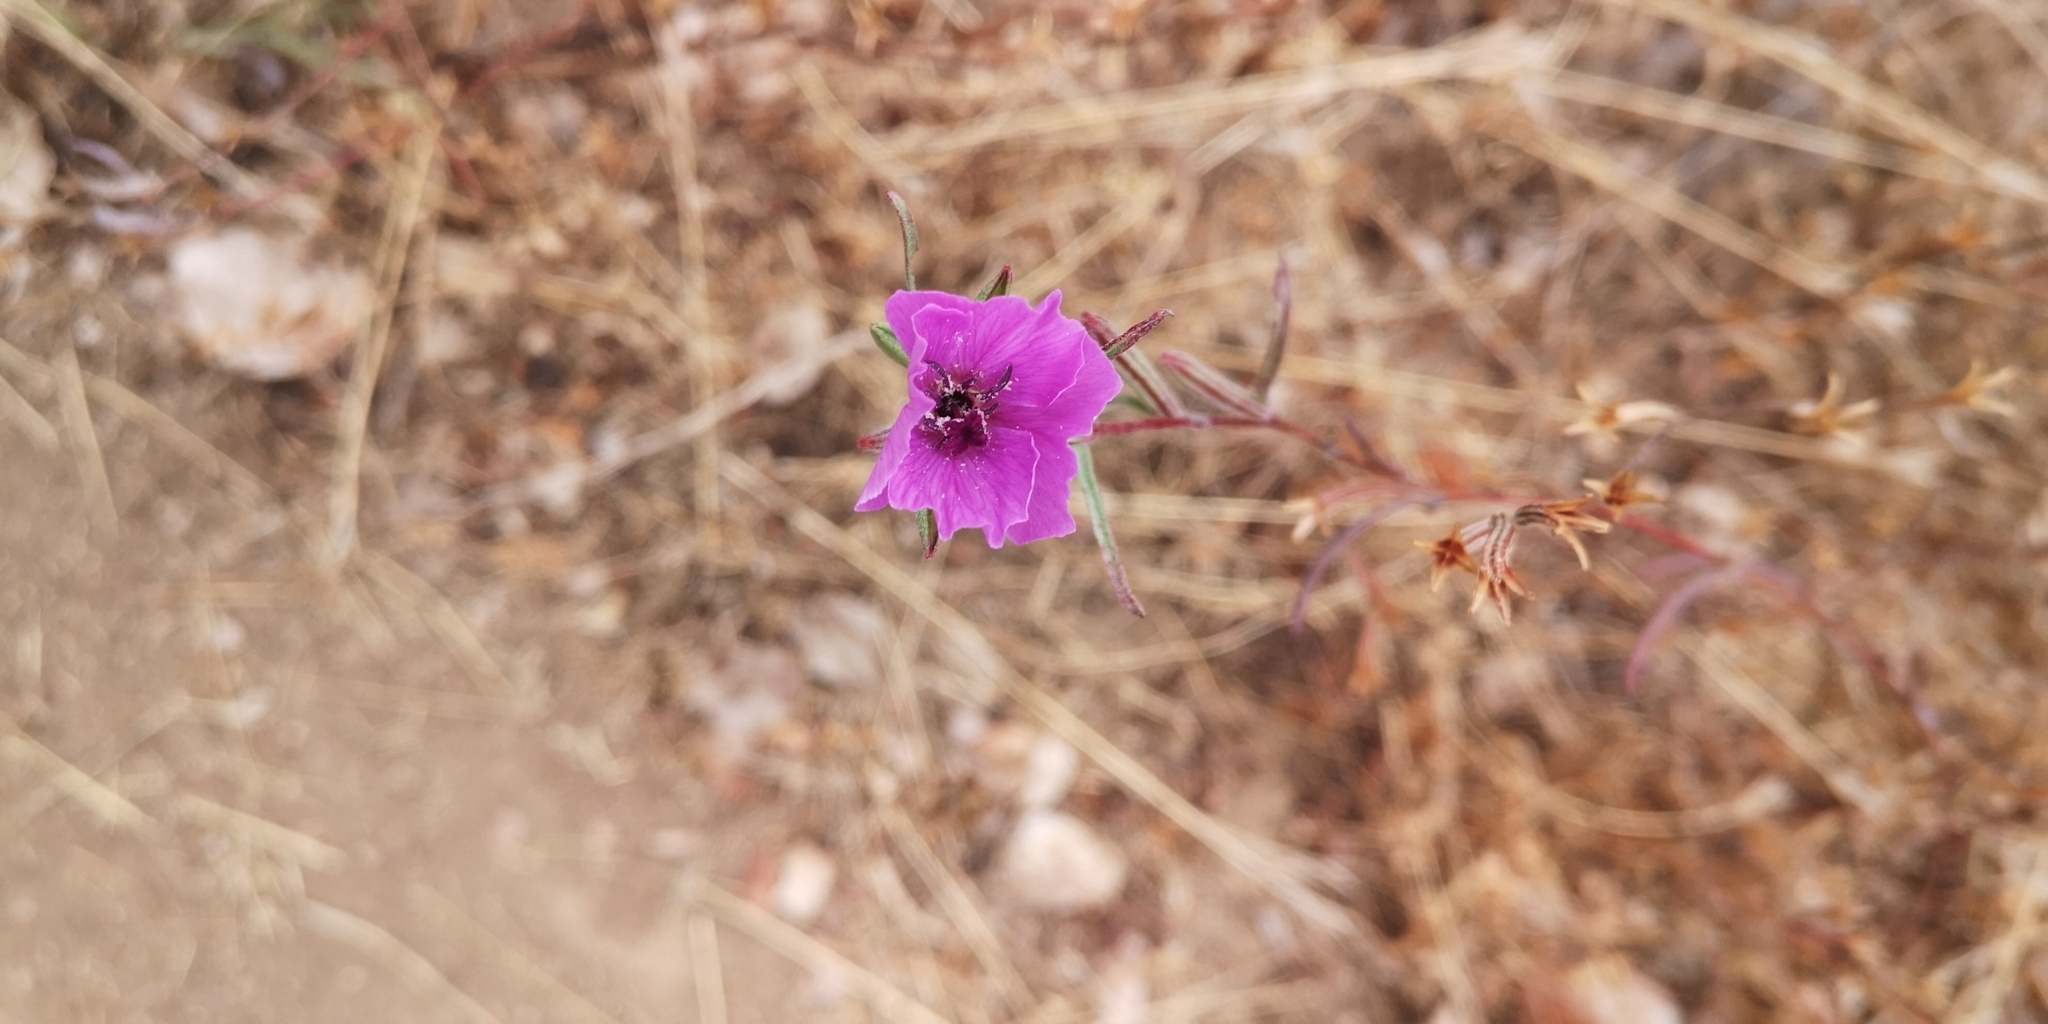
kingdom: Plantae
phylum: Tracheophyta
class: Magnoliopsida
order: Myrtales
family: Onagraceae
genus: Clarkia
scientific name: Clarkia tenella
